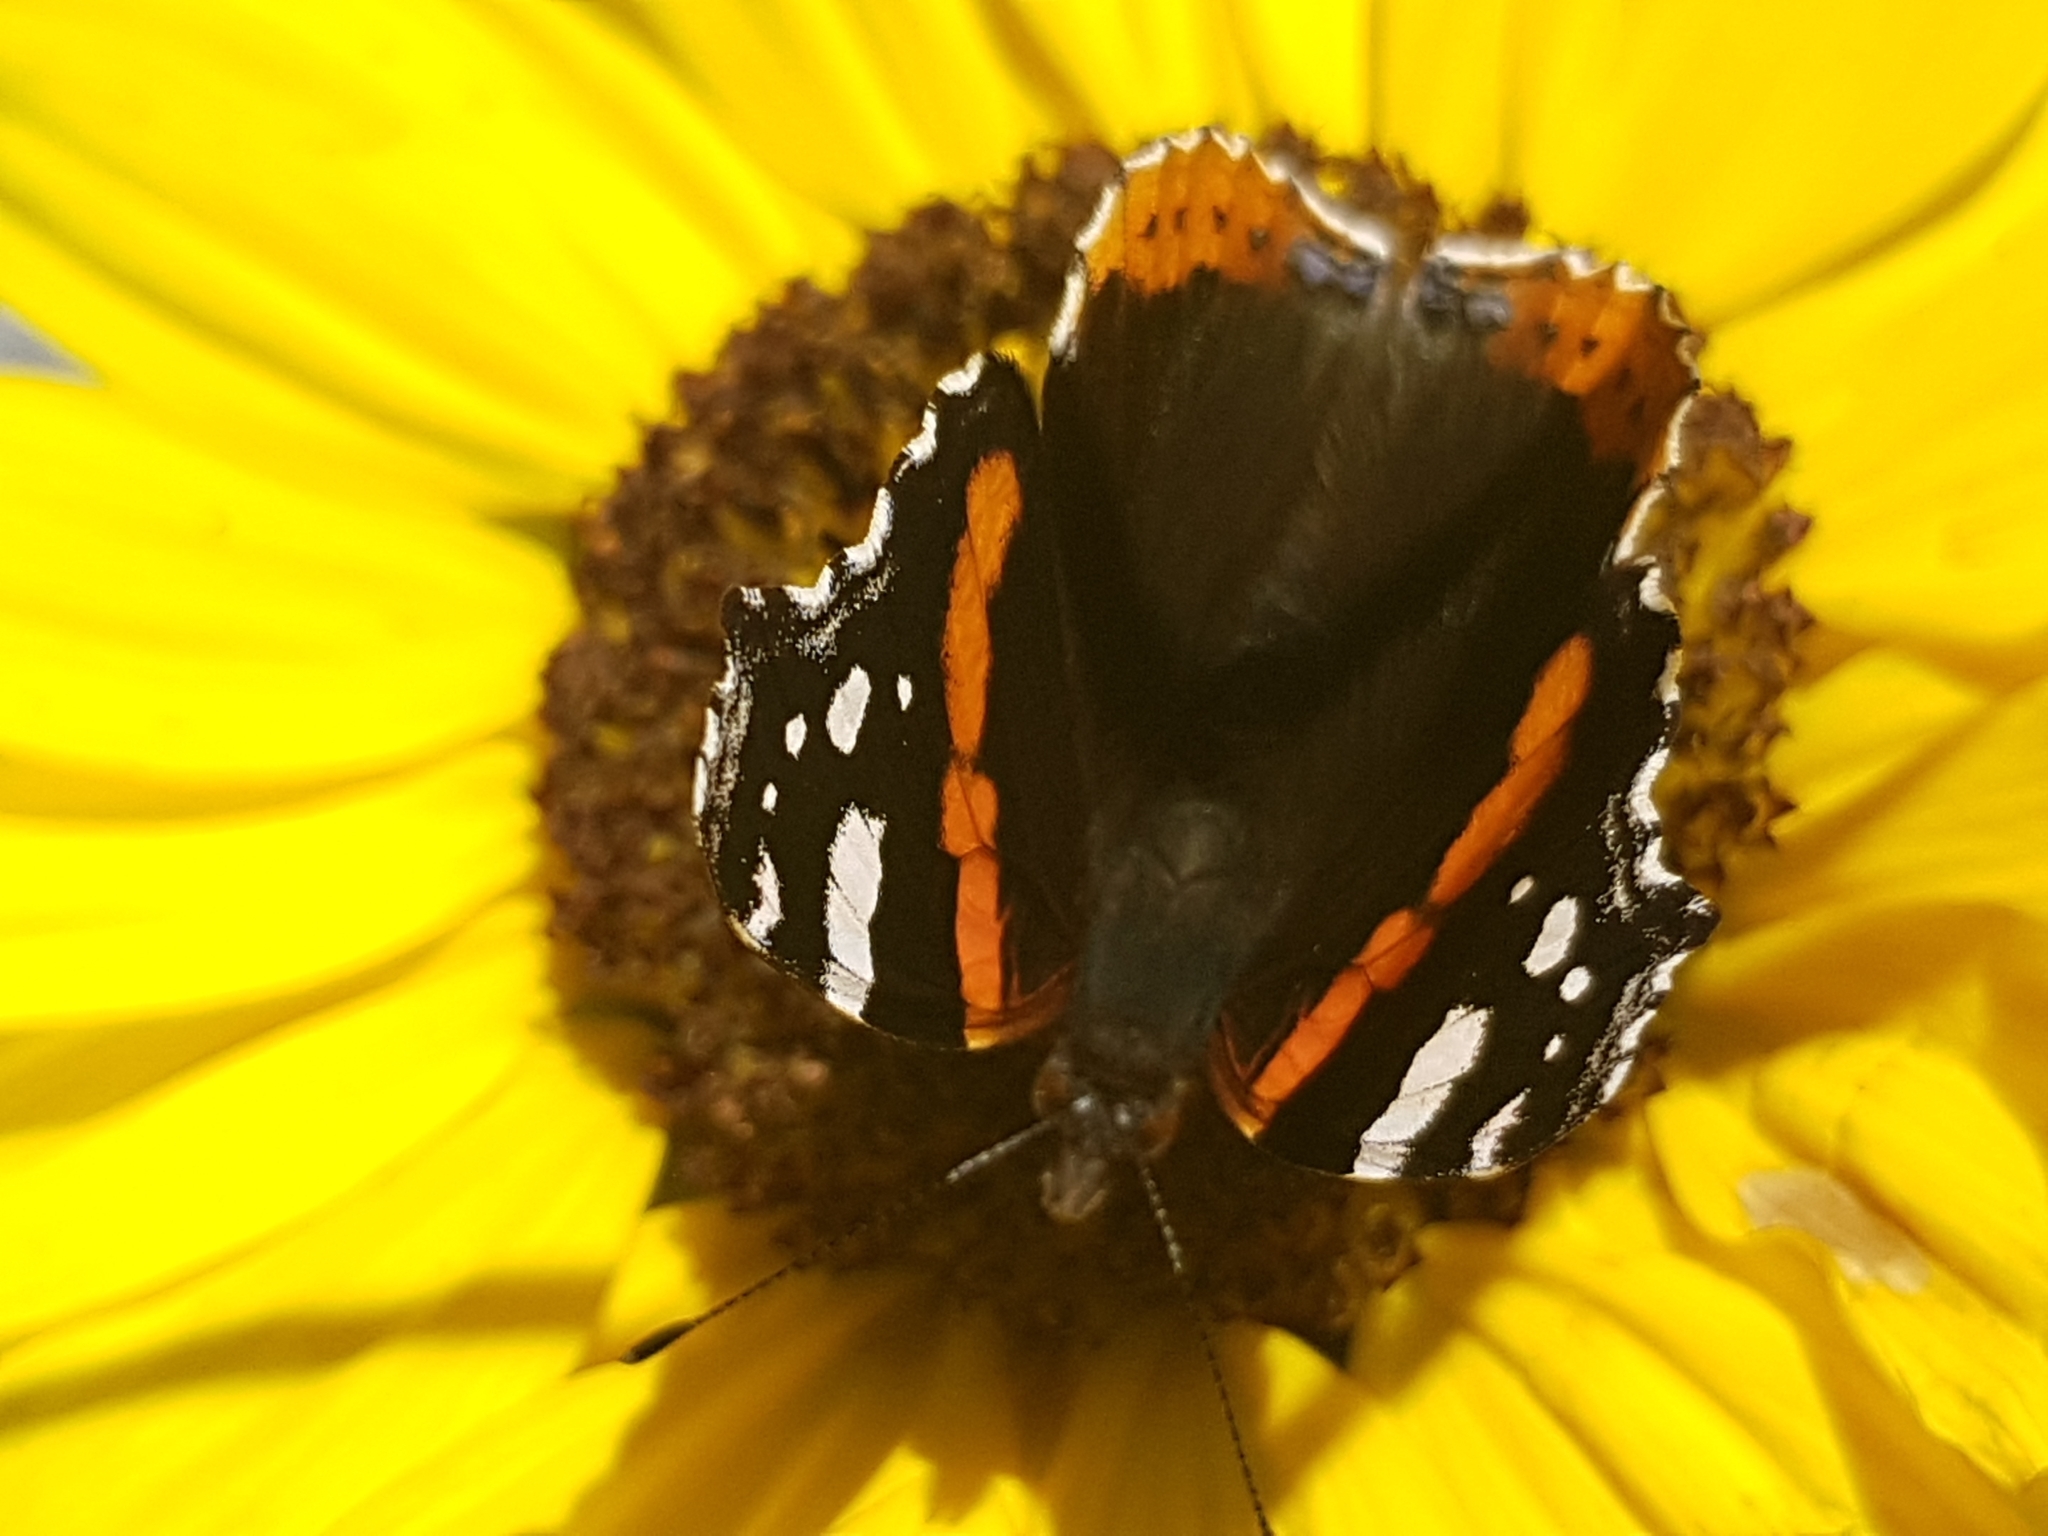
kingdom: Animalia
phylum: Arthropoda
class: Insecta
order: Lepidoptera
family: Nymphalidae
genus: Vanessa
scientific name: Vanessa atalanta
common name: Red admiral
